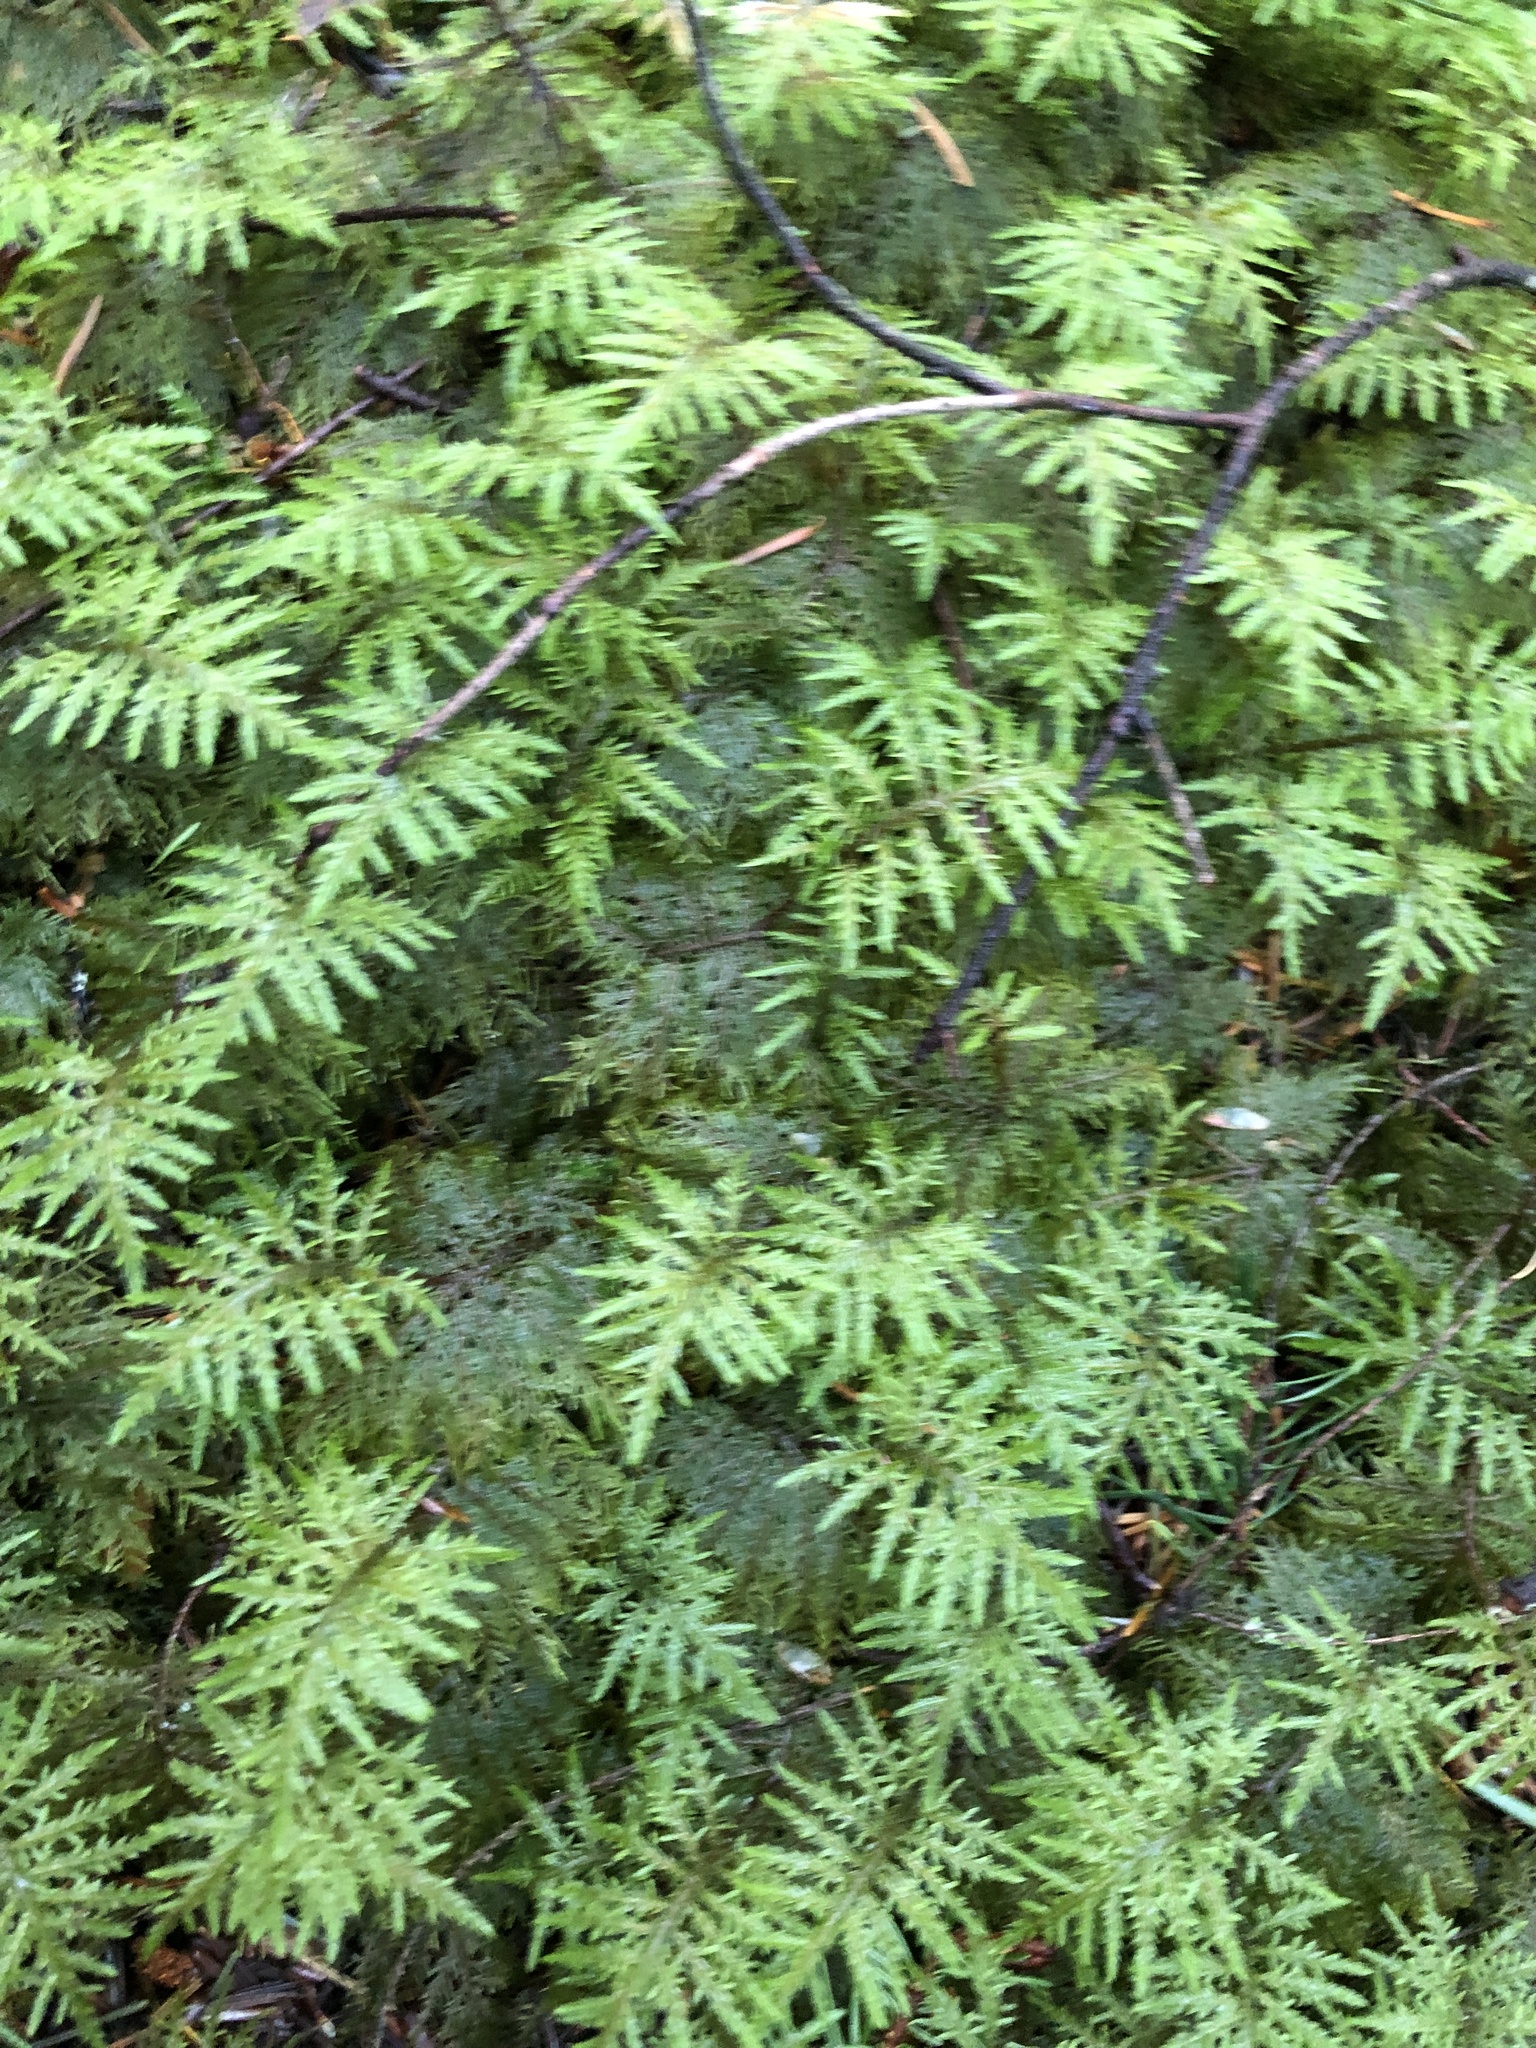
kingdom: Plantae
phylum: Bryophyta
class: Bryopsida
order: Hypnales
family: Hylocomiaceae
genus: Hylocomium
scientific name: Hylocomium splendens
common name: Stairstep moss
